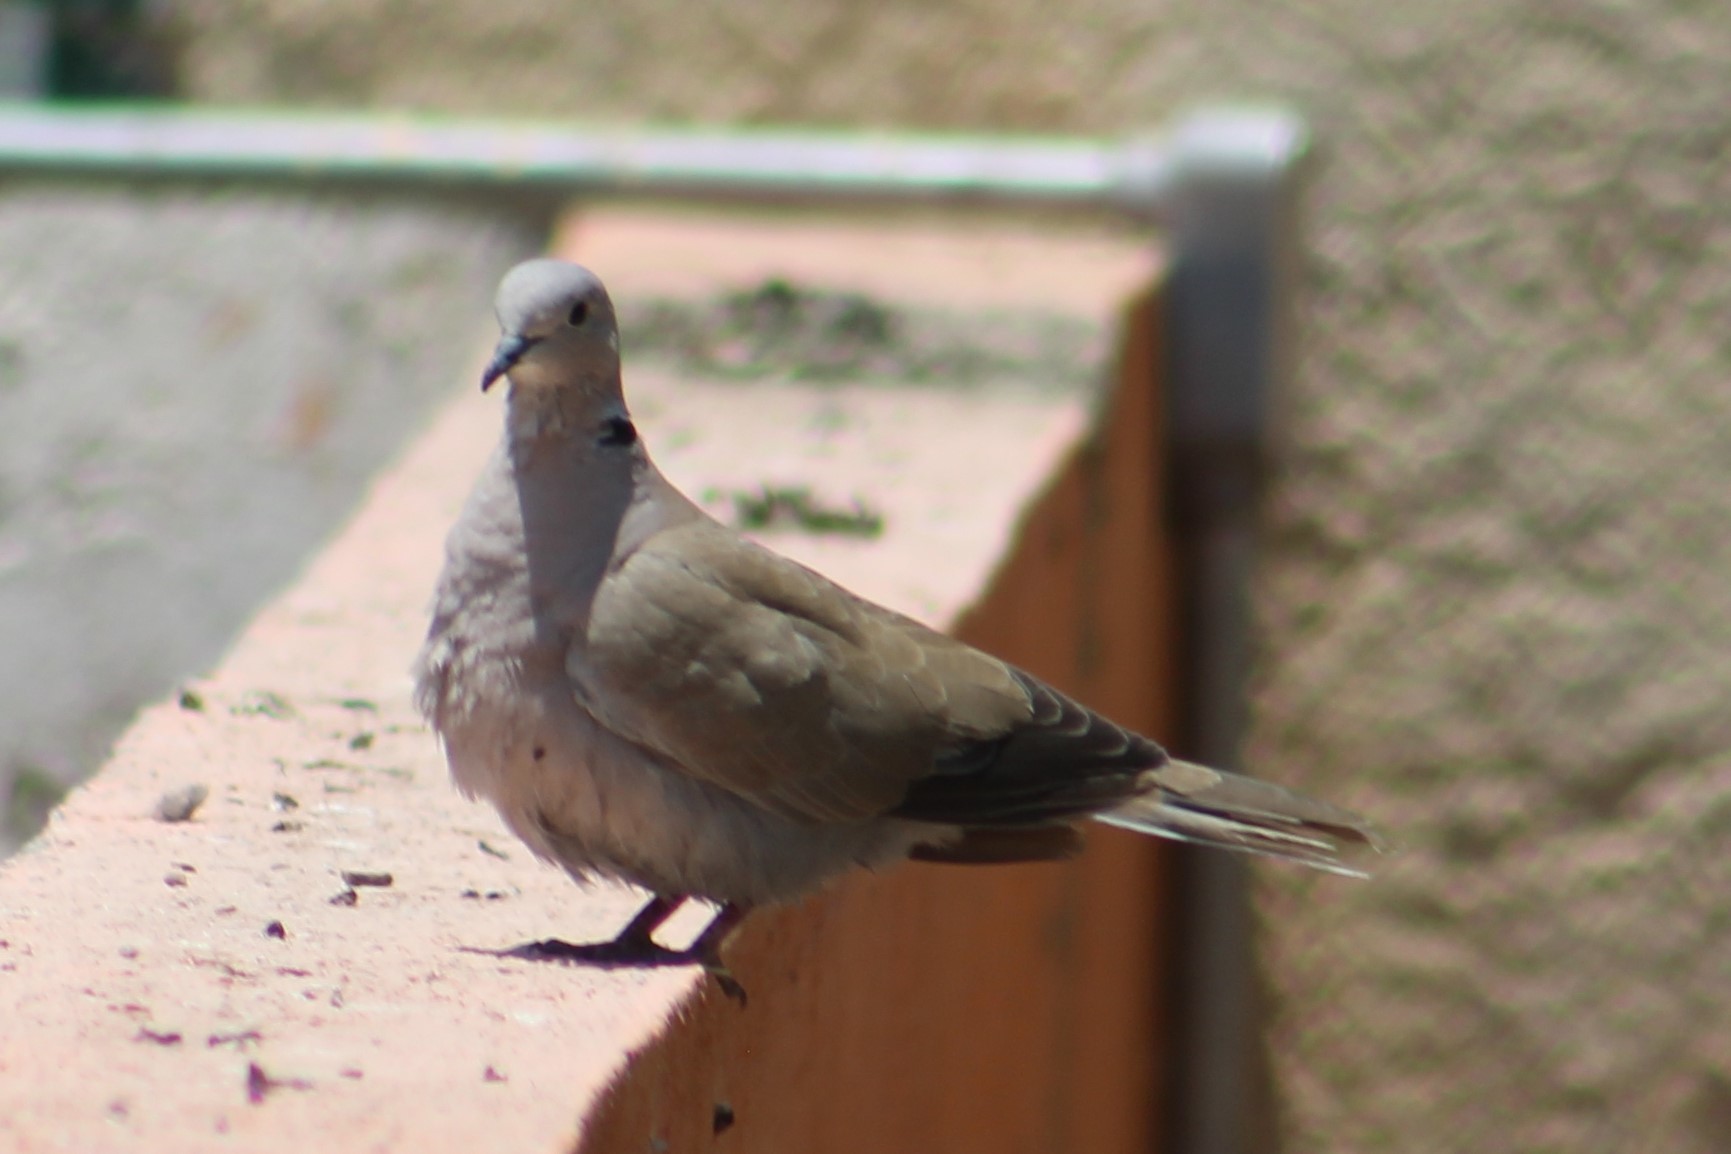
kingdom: Animalia
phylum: Chordata
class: Aves
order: Columbiformes
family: Columbidae
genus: Streptopelia
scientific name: Streptopelia decaocto
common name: Eurasian collared dove
